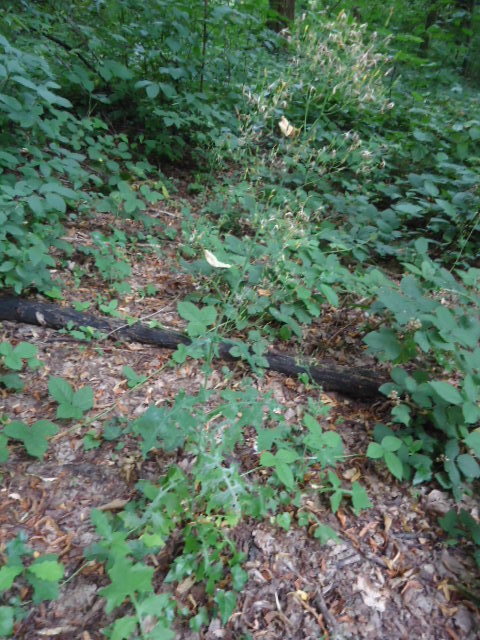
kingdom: Plantae
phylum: Tracheophyta
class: Magnoliopsida
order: Asterales
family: Asteraceae
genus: Mycelis
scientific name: Mycelis muralis
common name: Wall lettuce
